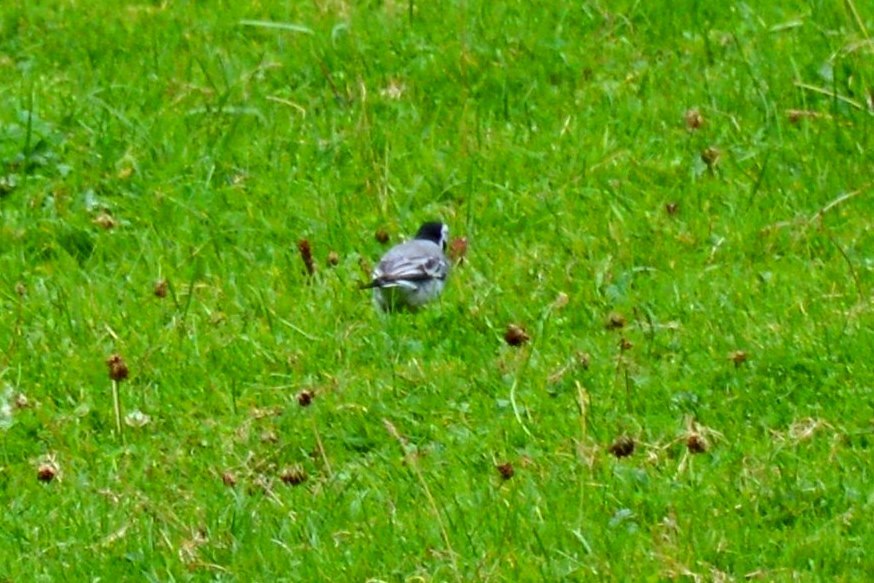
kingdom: Animalia
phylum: Chordata
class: Aves
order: Passeriformes
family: Motacillidae
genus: Motacilla
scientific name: Motacilla alba
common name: White wagtail
